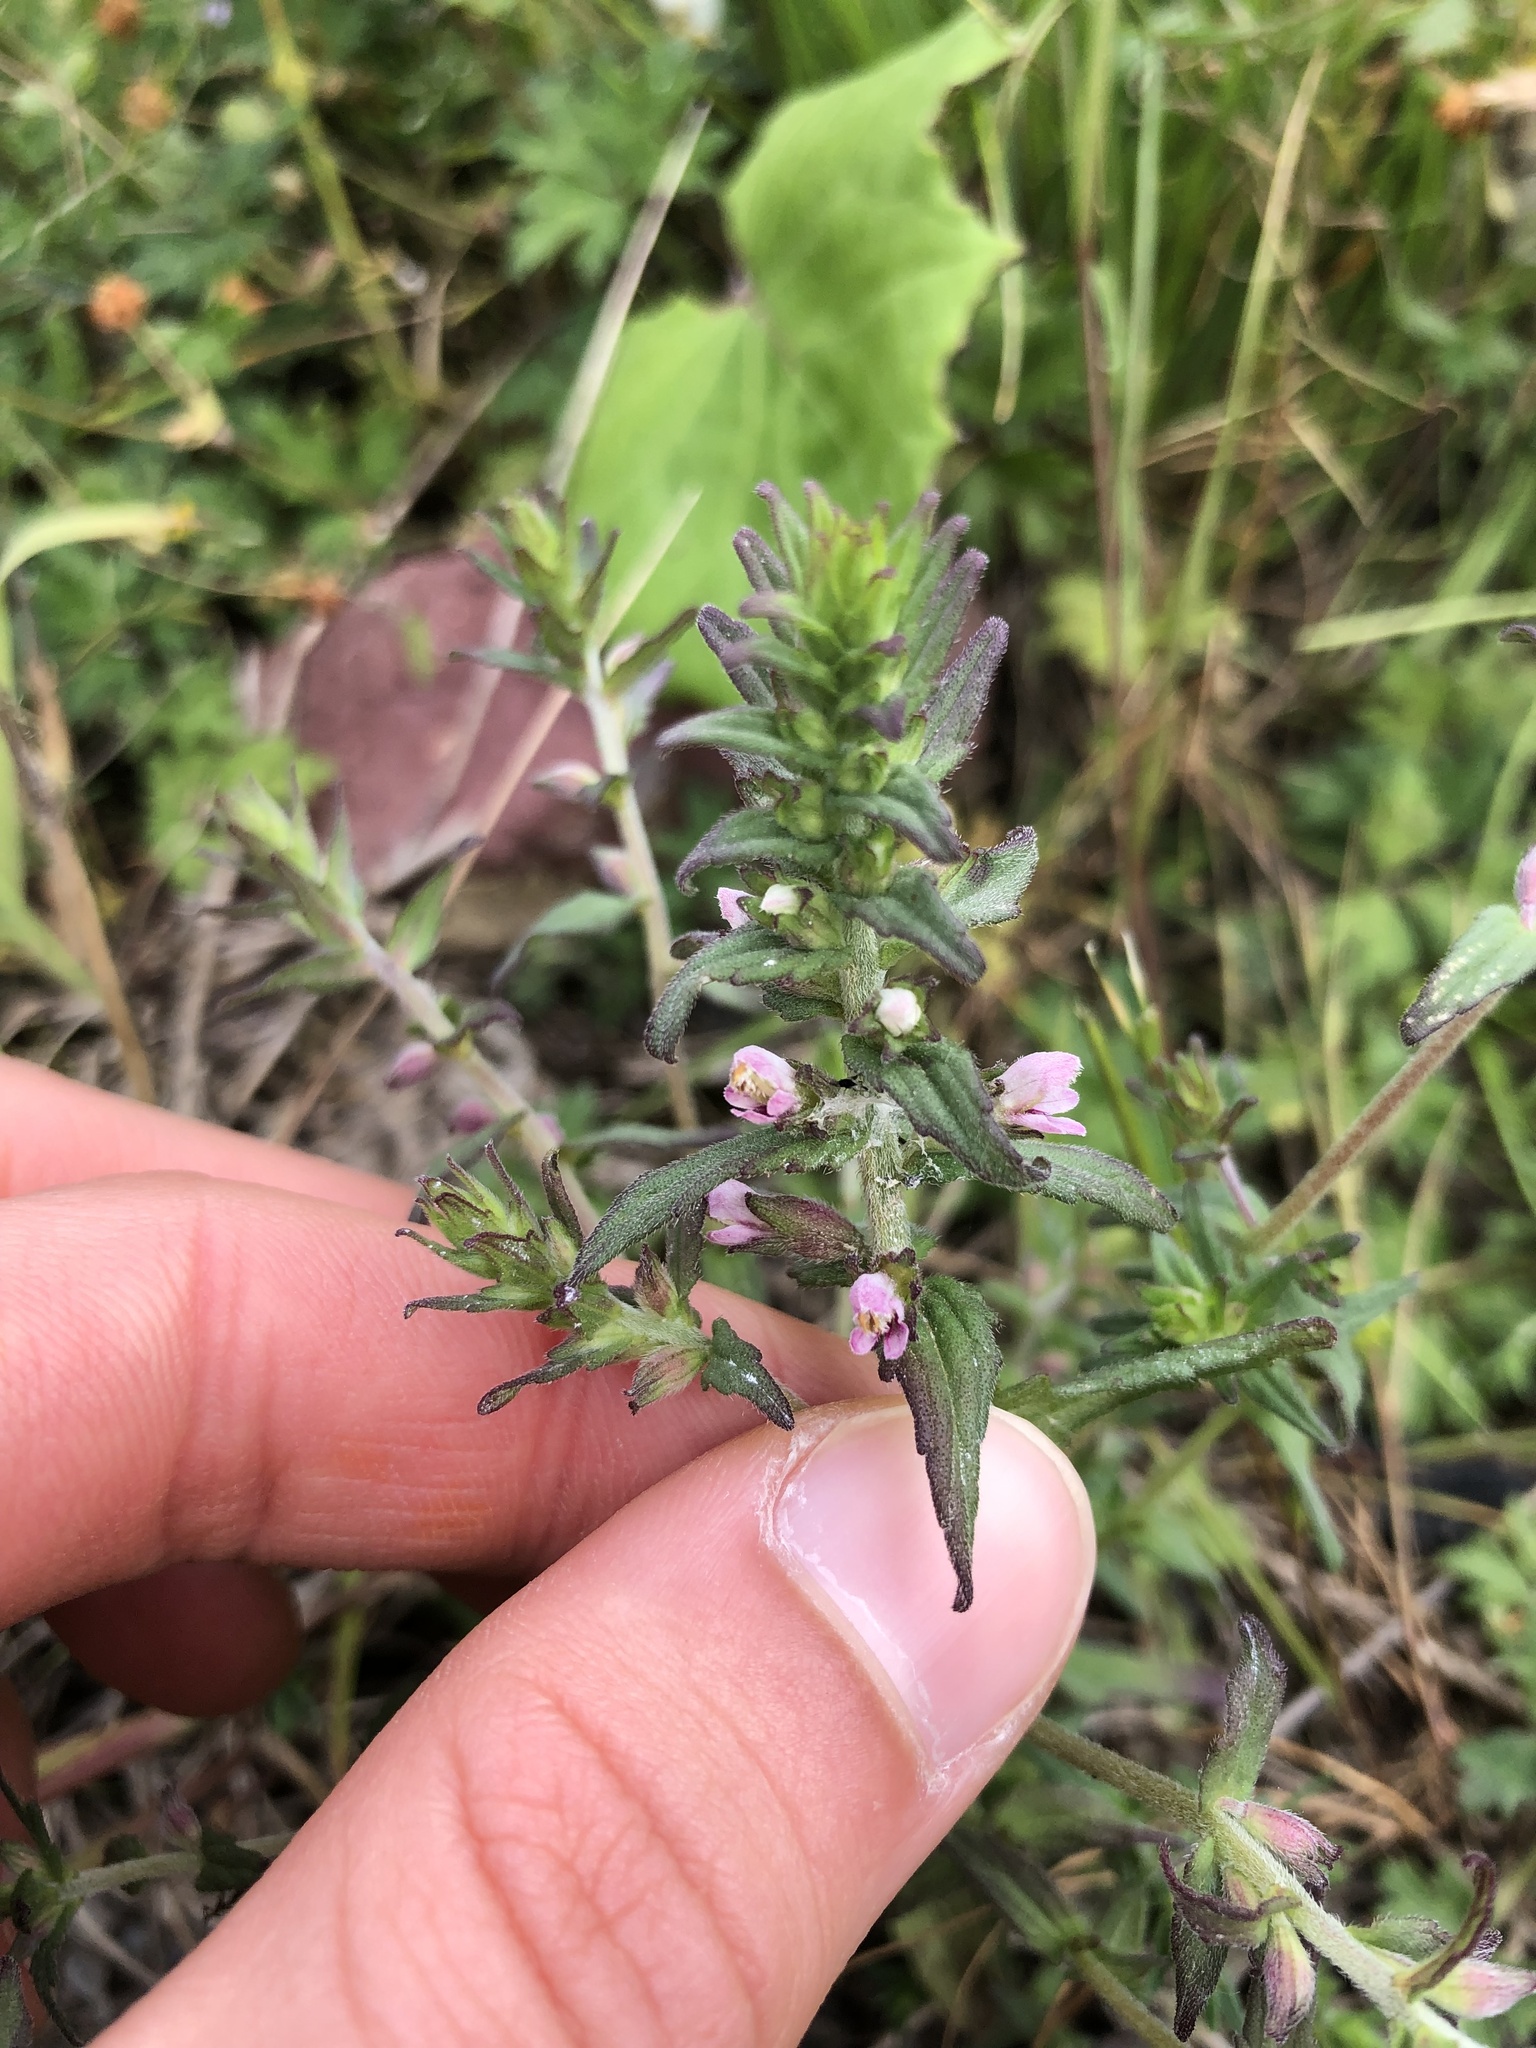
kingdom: Plantae
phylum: Tracheophyta
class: Magnoliopsida
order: Lamiales
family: Orobanchaceae
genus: Odontites
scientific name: Odontites vernus
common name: Red bartsia
